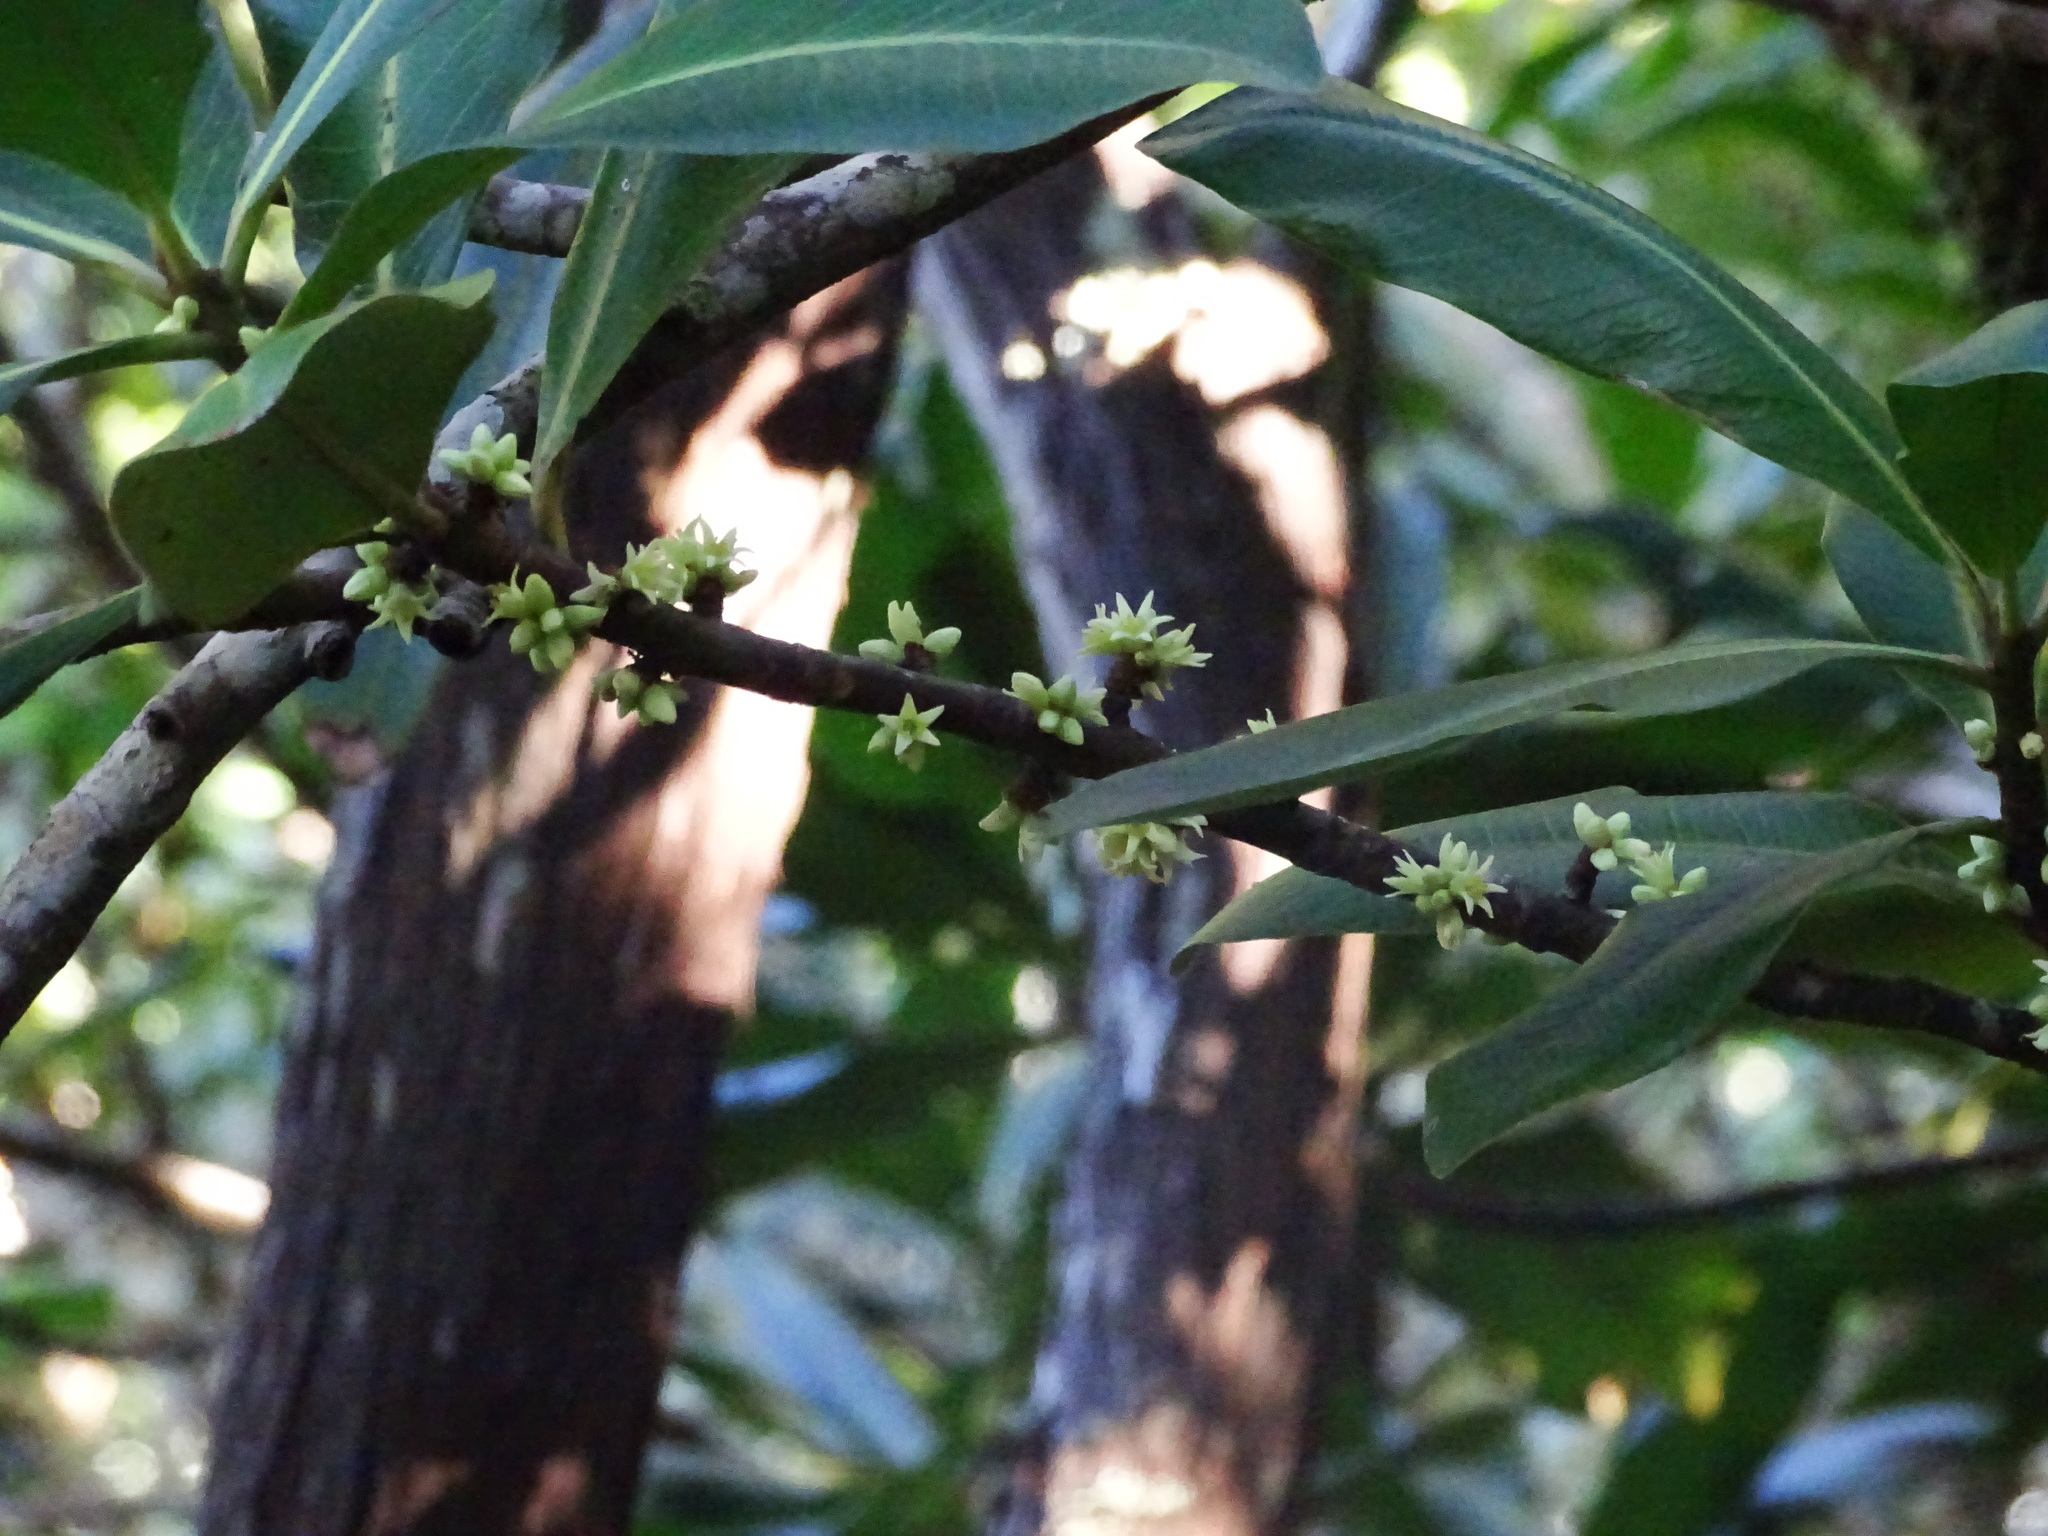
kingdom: Plantae
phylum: Tracheophyta
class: Magnoliopsida
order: Ericales
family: Primulaceae
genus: Pleiomeris
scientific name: Pleiomeris canariensis
